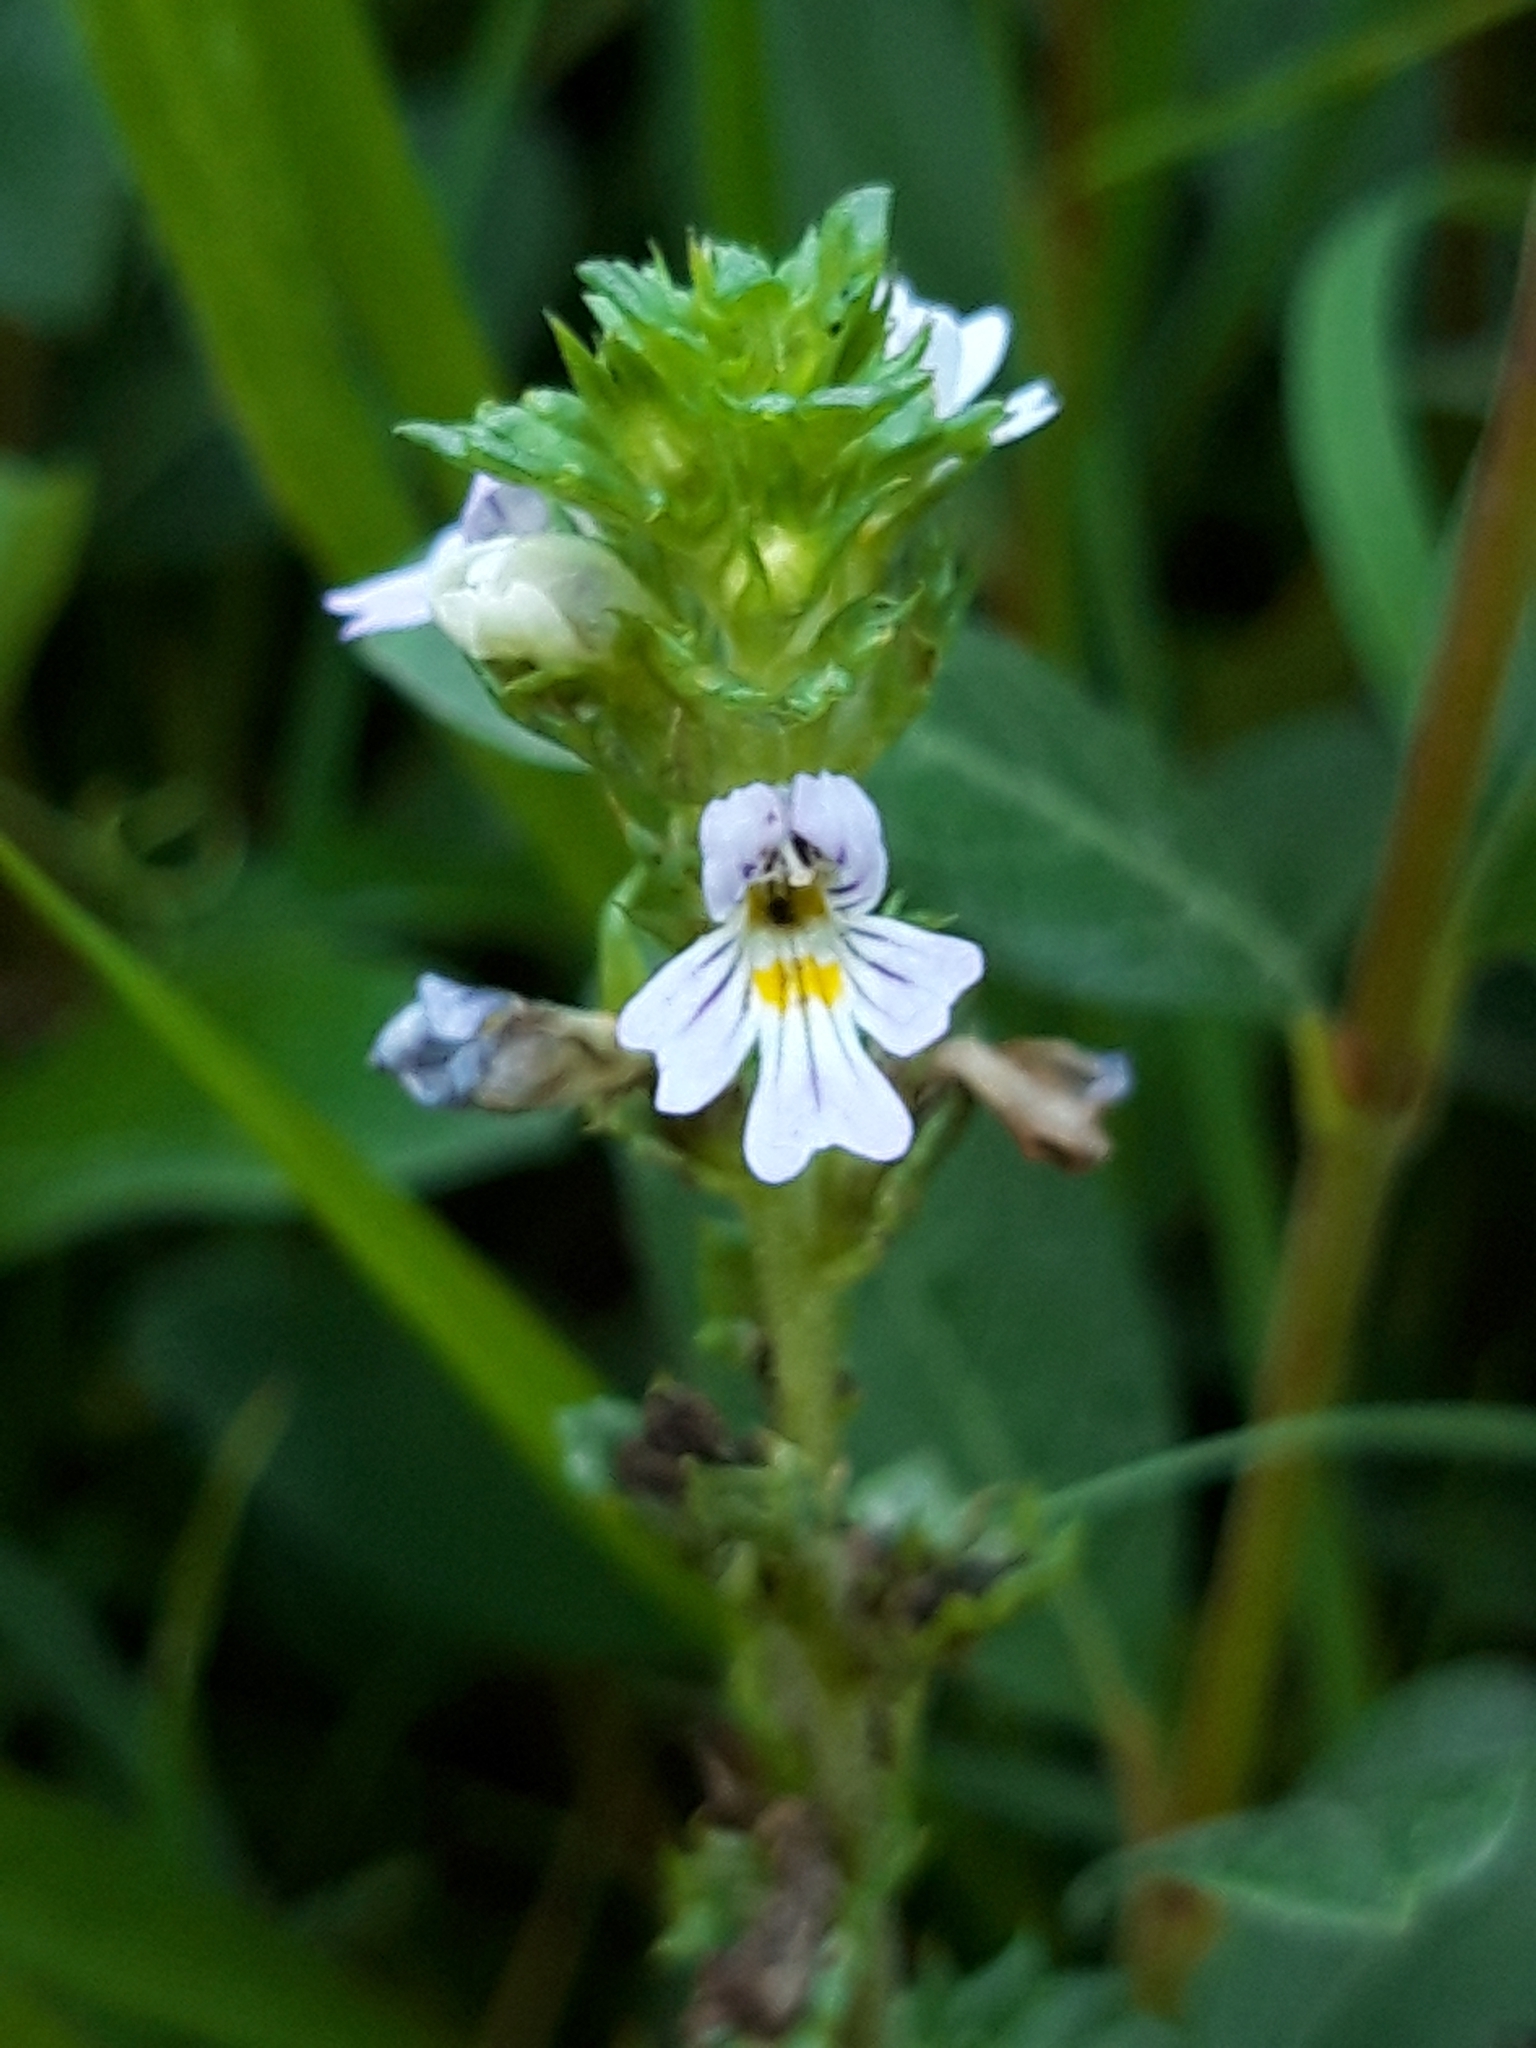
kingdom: Plantae
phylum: Tracheophyta
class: Magnoliopsida
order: Lamiales
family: Orobanchaceae
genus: Euphrasia
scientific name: Euphrasia stricta
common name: Drug eyebright
